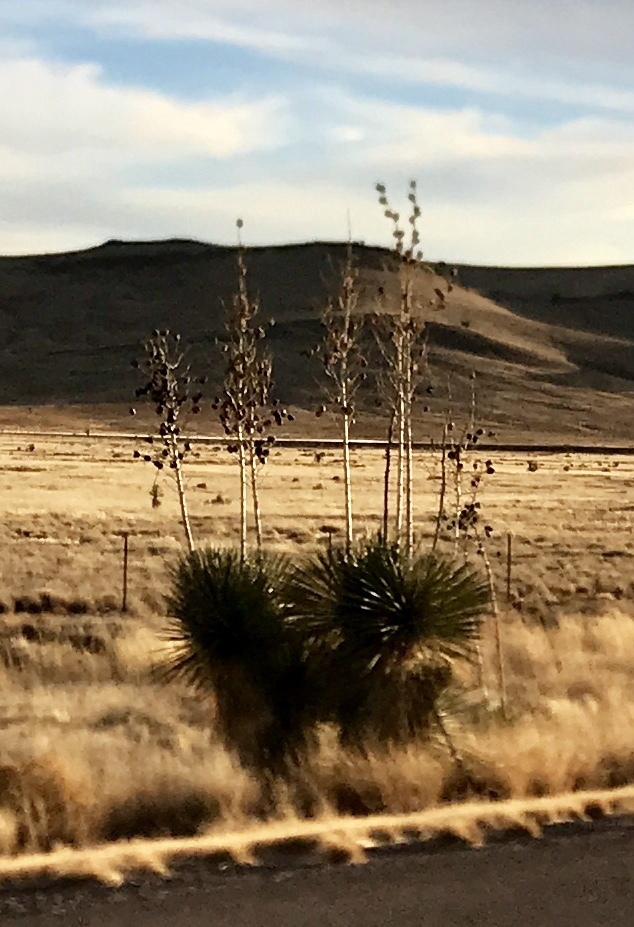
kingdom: Plantae
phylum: Tracheophyta
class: Liliopsida
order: Asparagales
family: Asparagaceae
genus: Yucca
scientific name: Yucca elata
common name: Palmella
